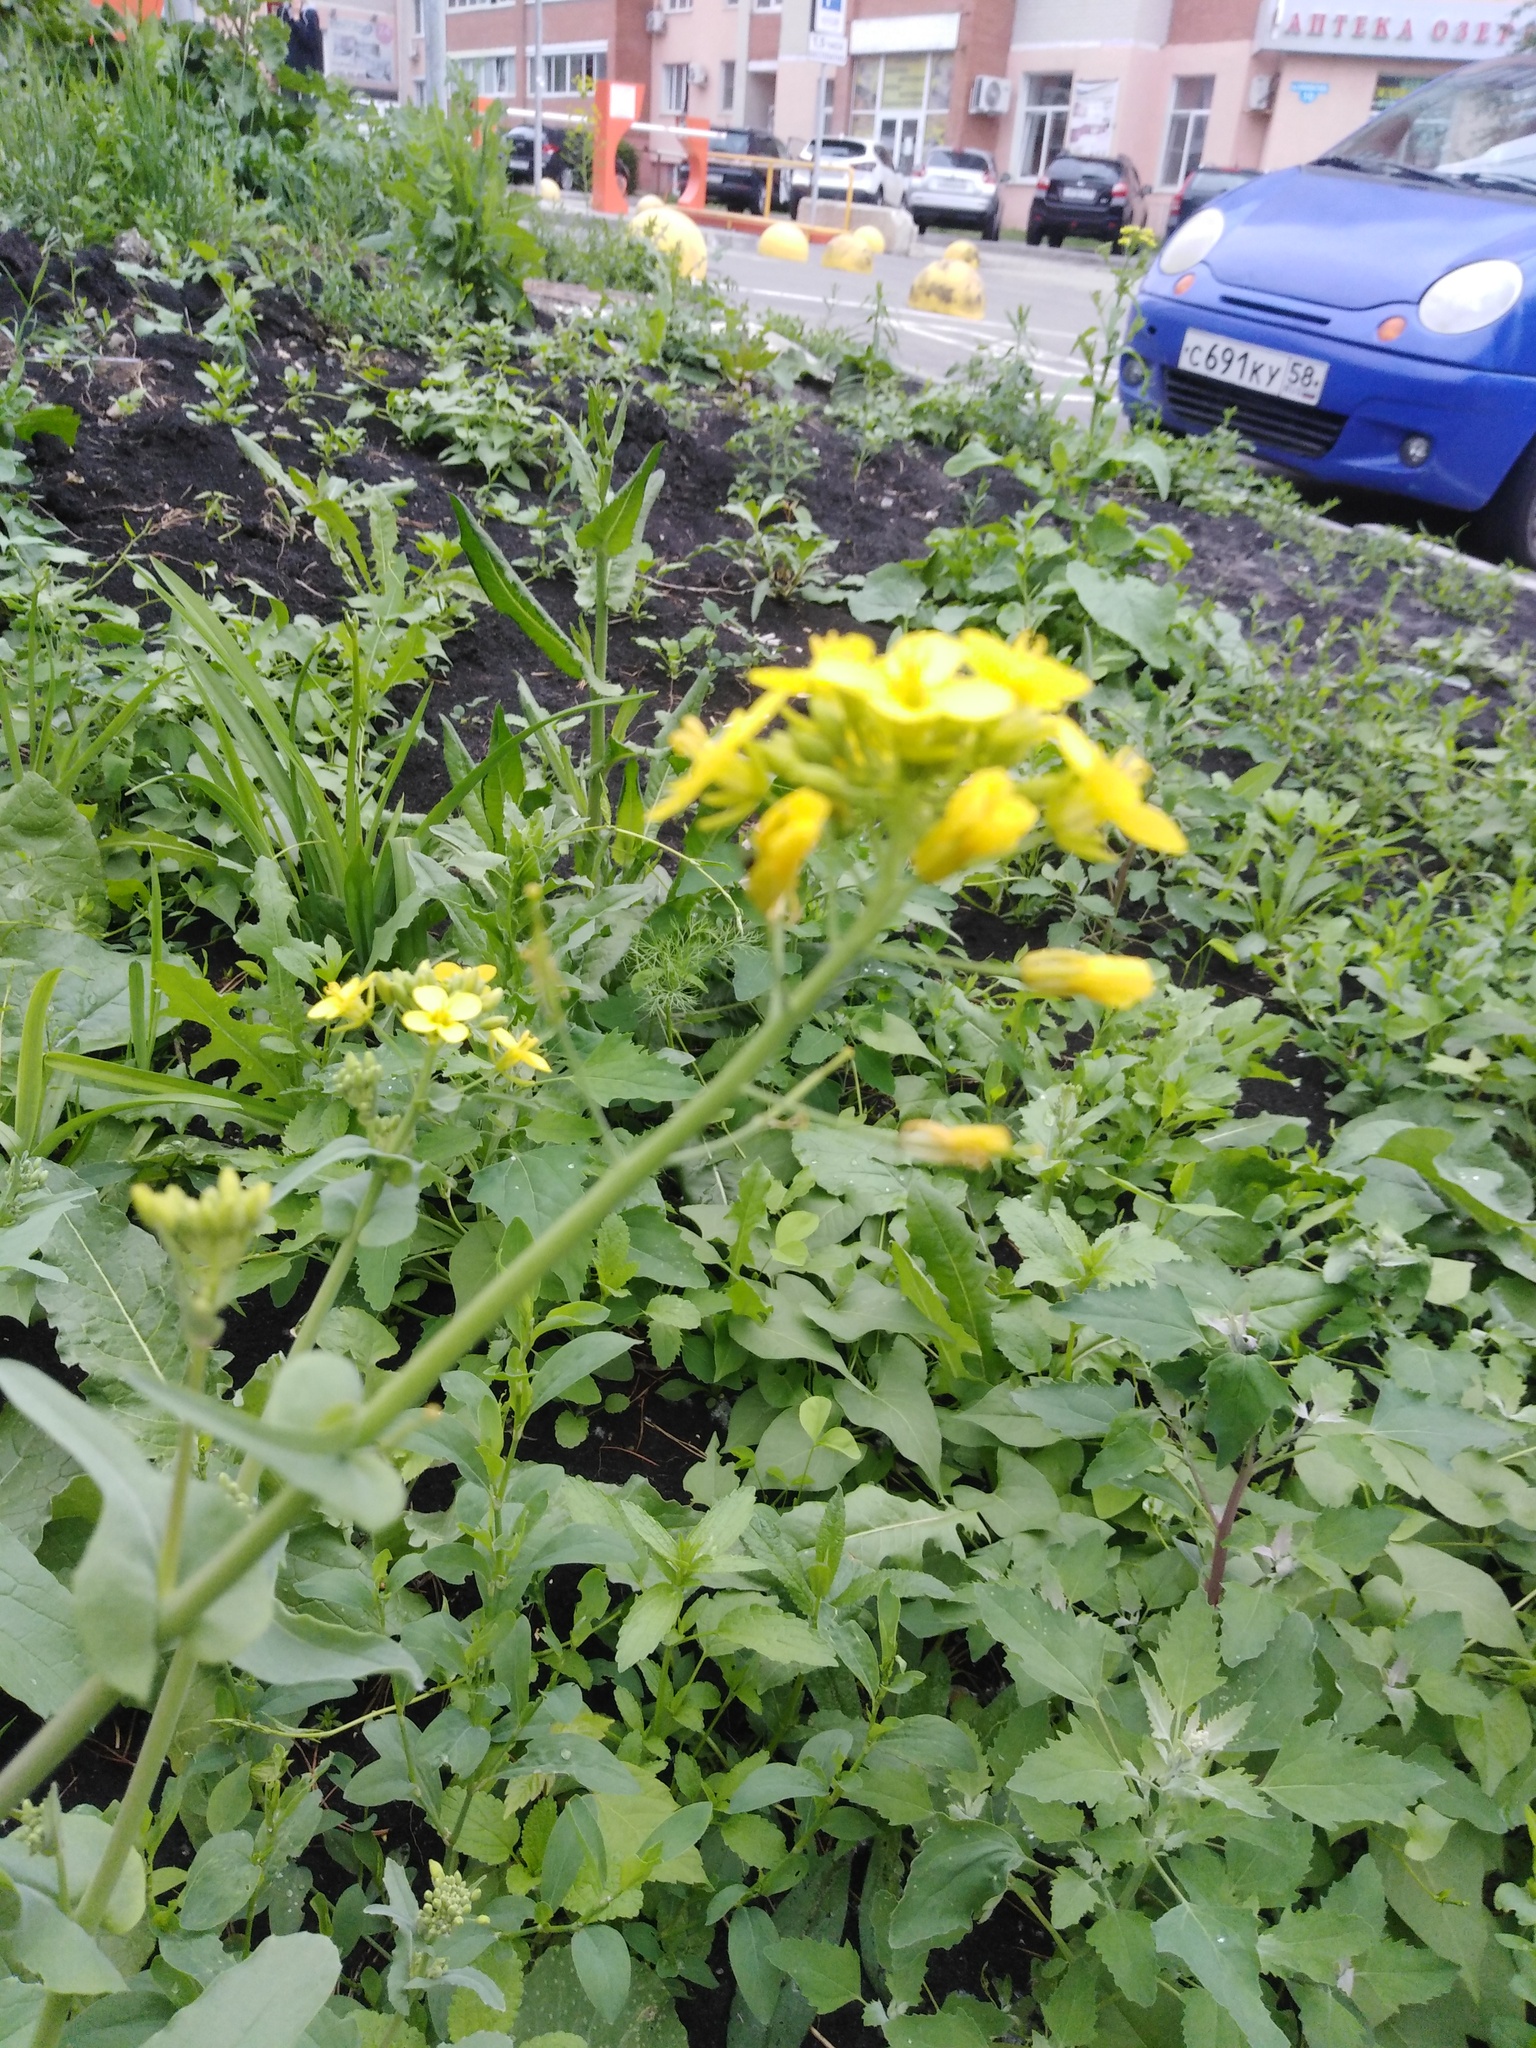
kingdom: Plantae
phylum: Tracheophyta
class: Magnoliopsida
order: Brassicales
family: Brassicaceae
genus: Brassica
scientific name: Brassica rapa
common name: Field mustard
